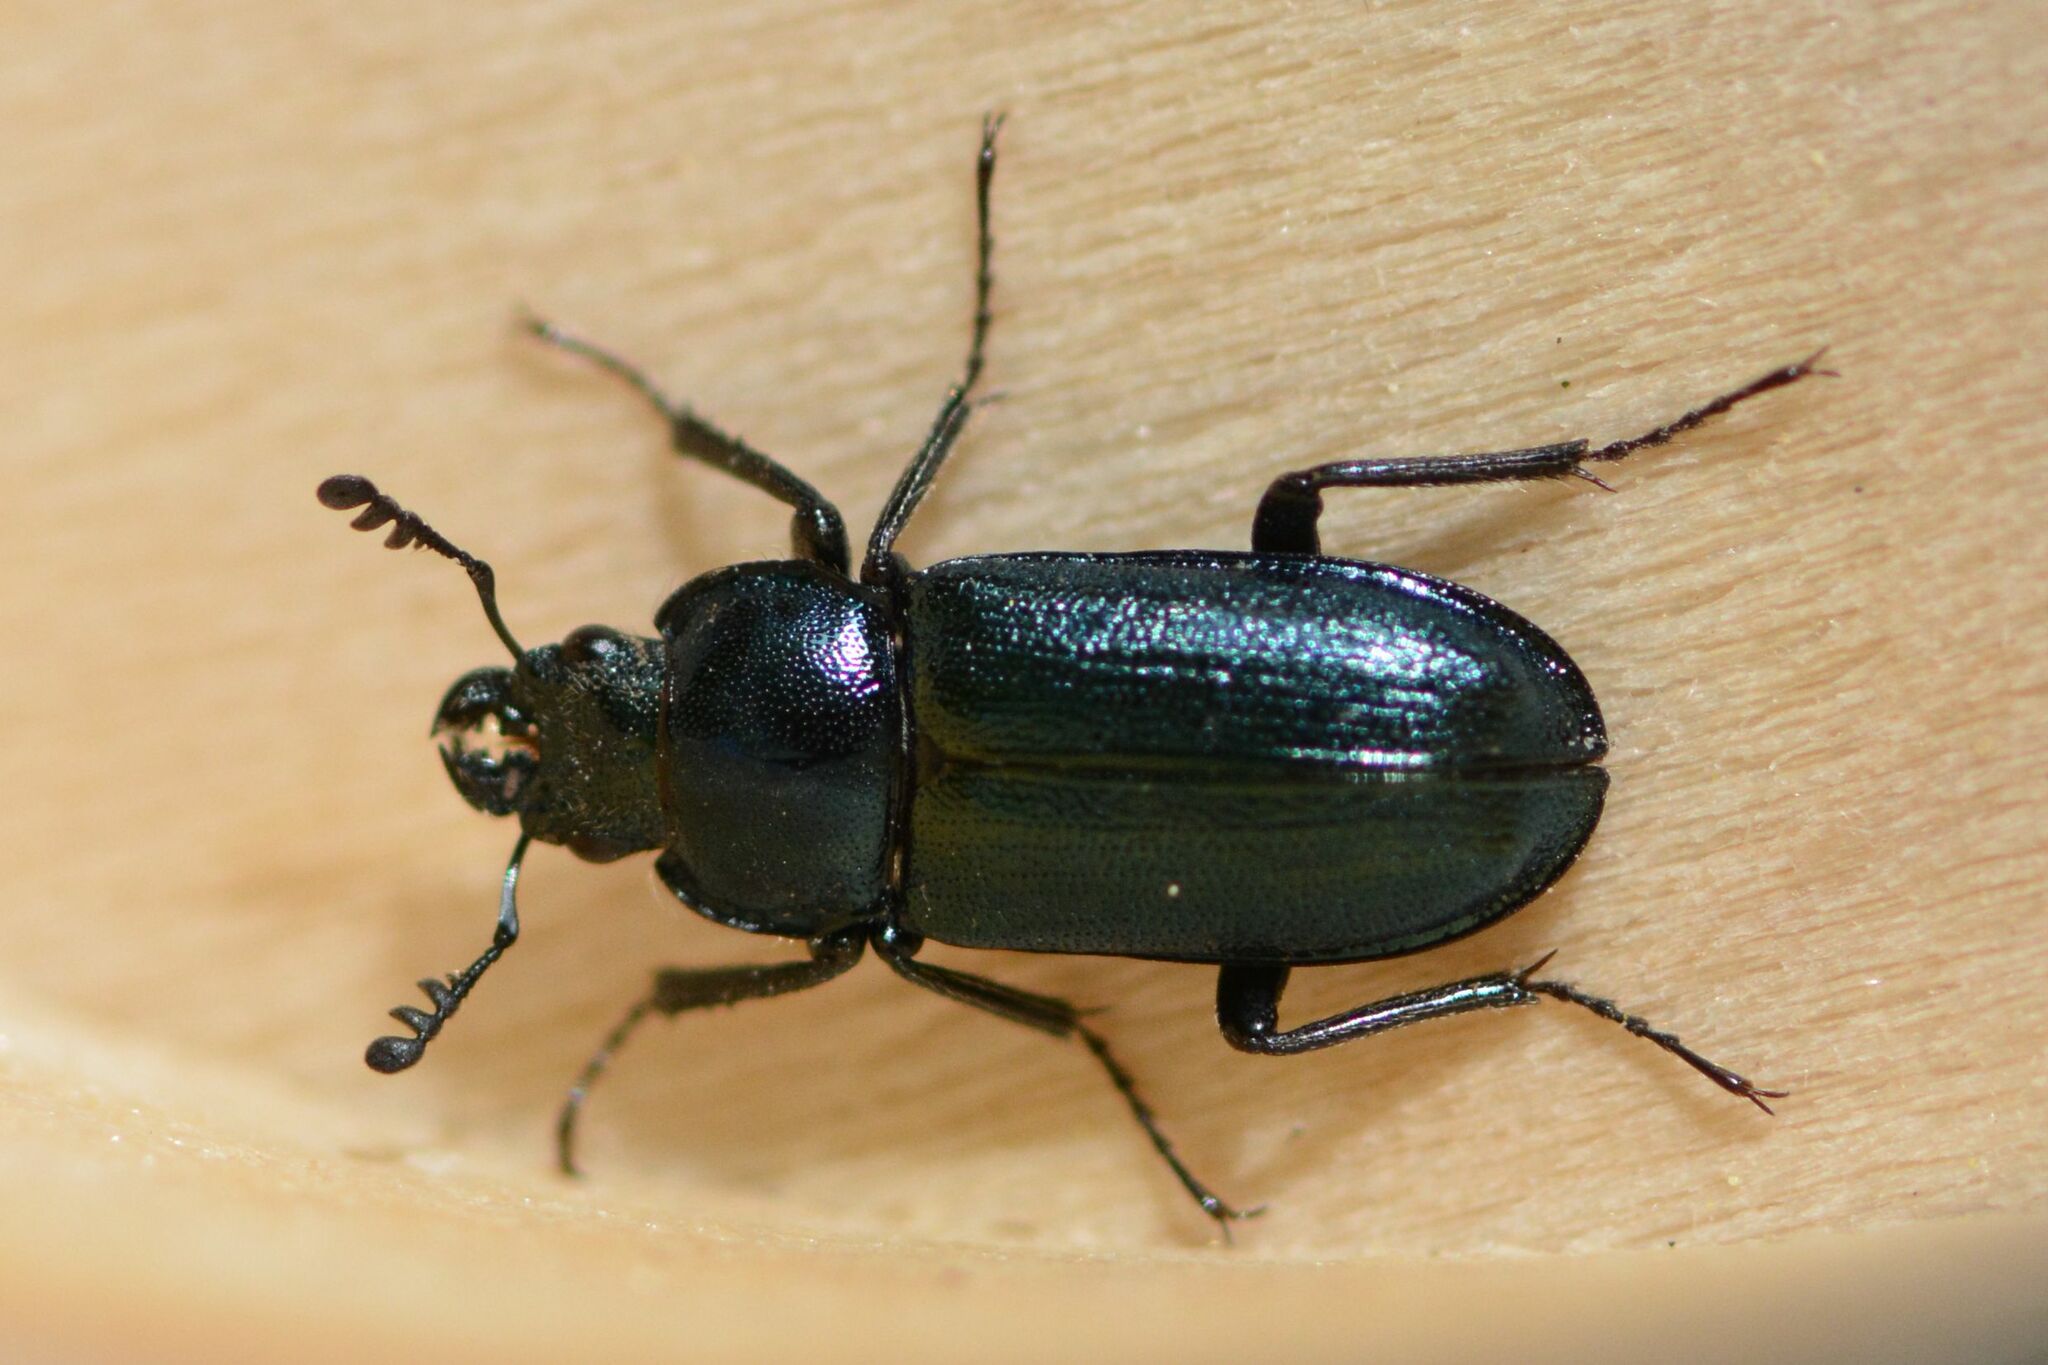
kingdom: Animalia
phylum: Arthropoda
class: Insecta
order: Coleoptera
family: Lucanidae
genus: Platycerus
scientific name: Platycerus caprea
